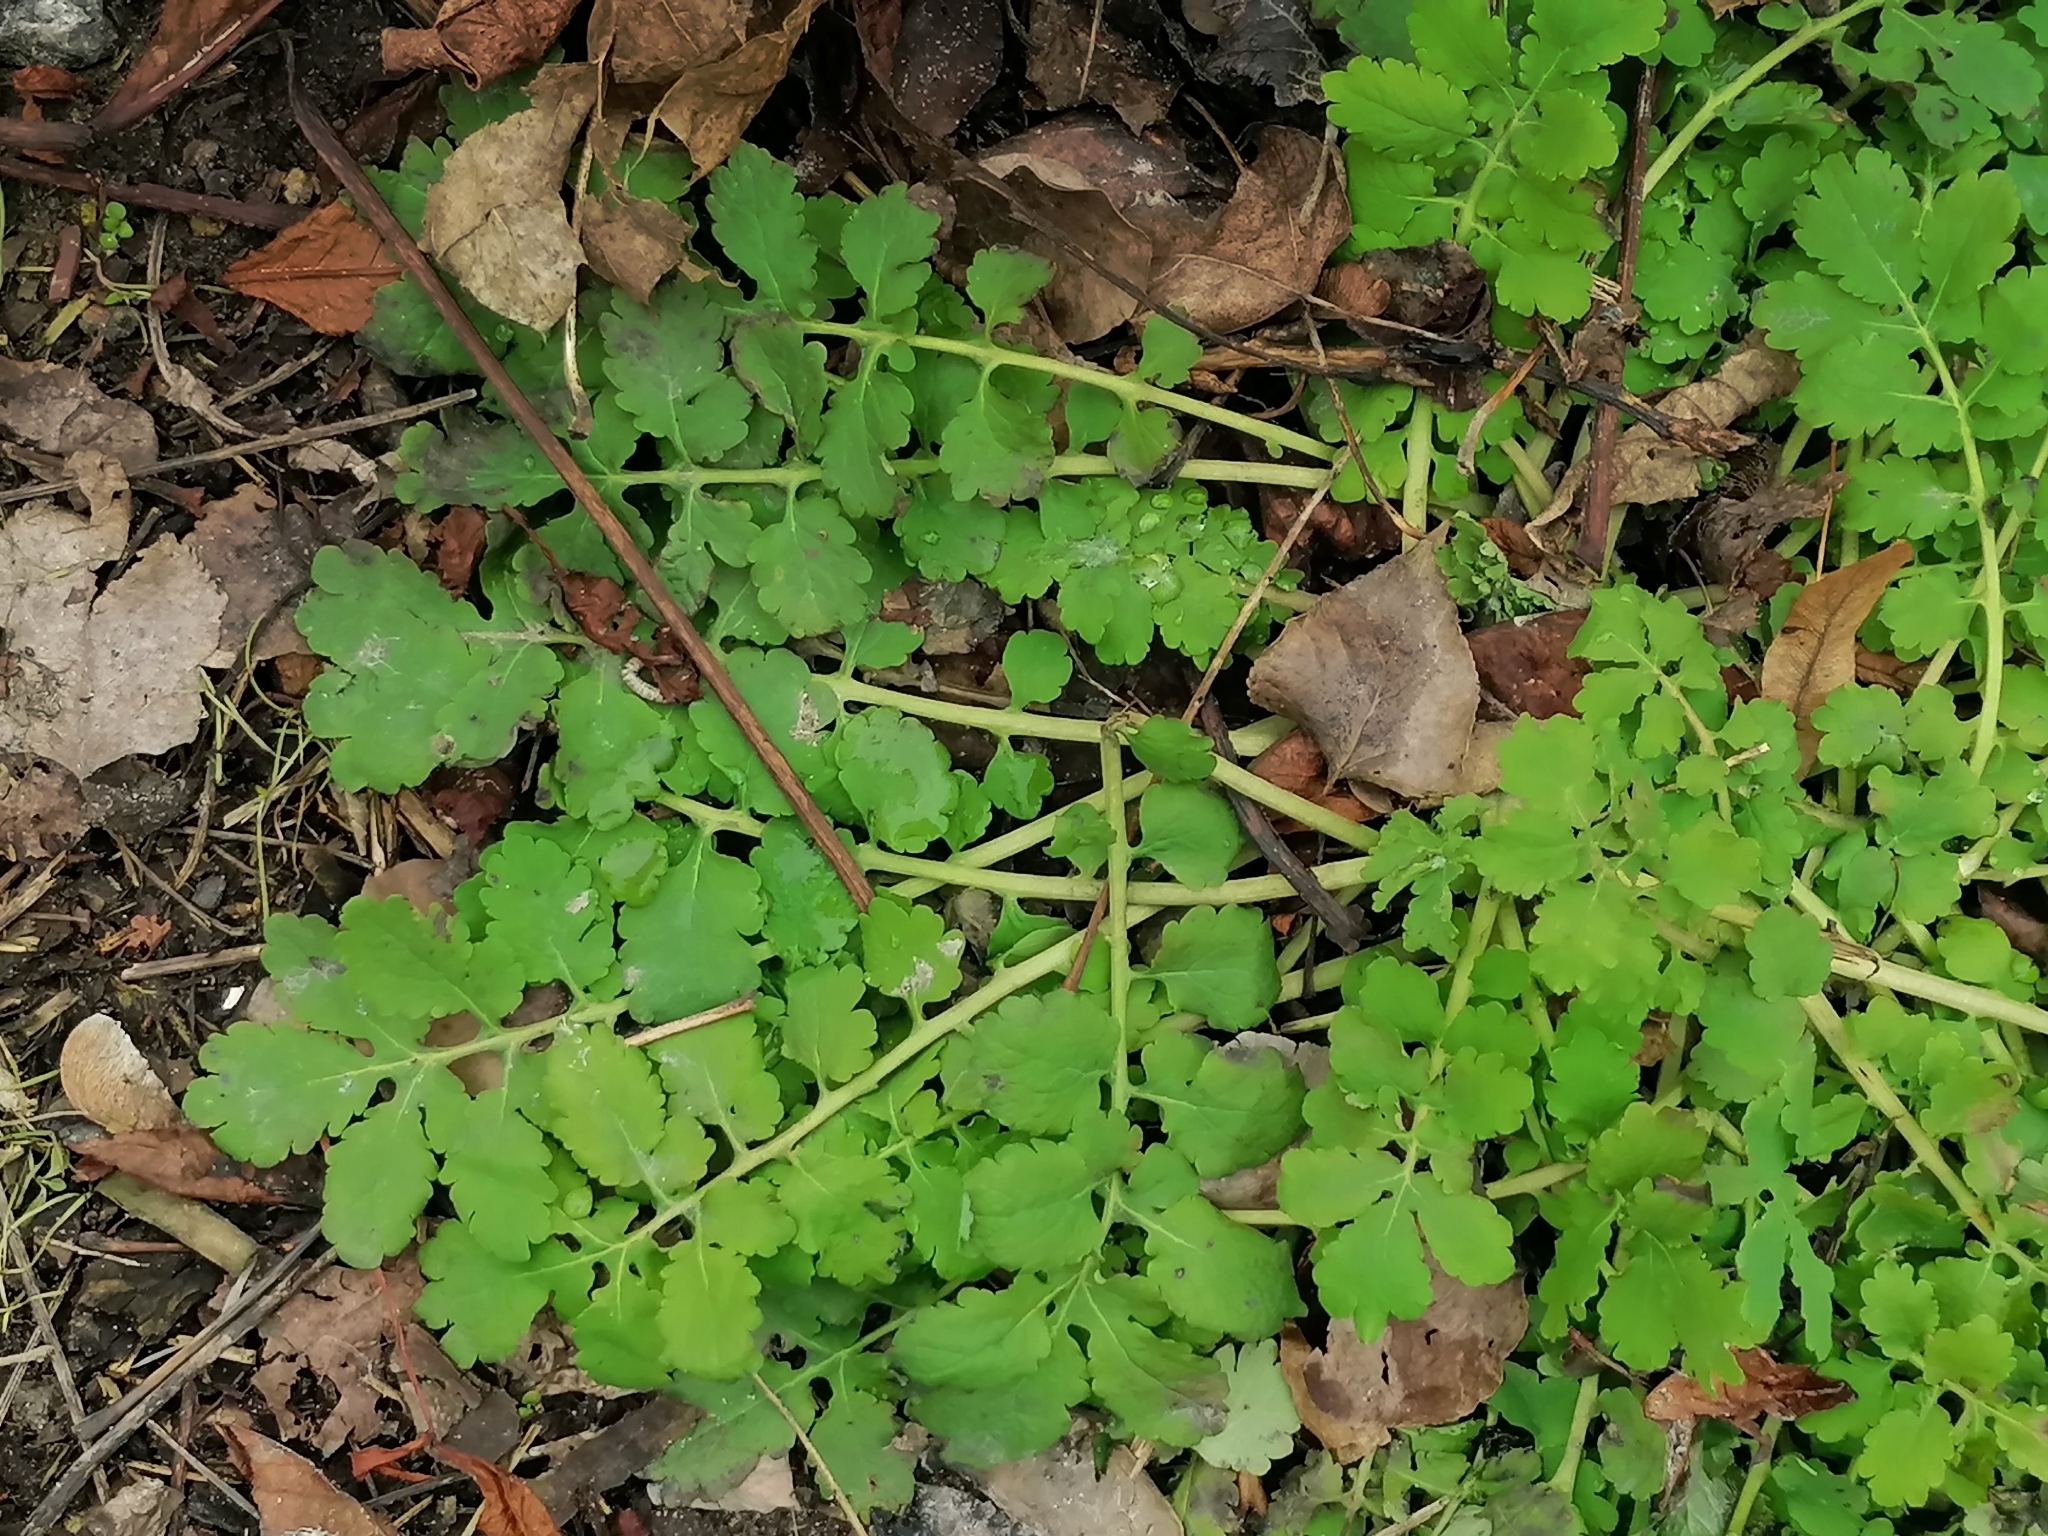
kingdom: Plantae
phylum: Tracheophyta
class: Magnoliopsida
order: Ranunculales
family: Papaveraceae
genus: Chelidonium
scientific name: Chelidonium majus
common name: Greater celandine
